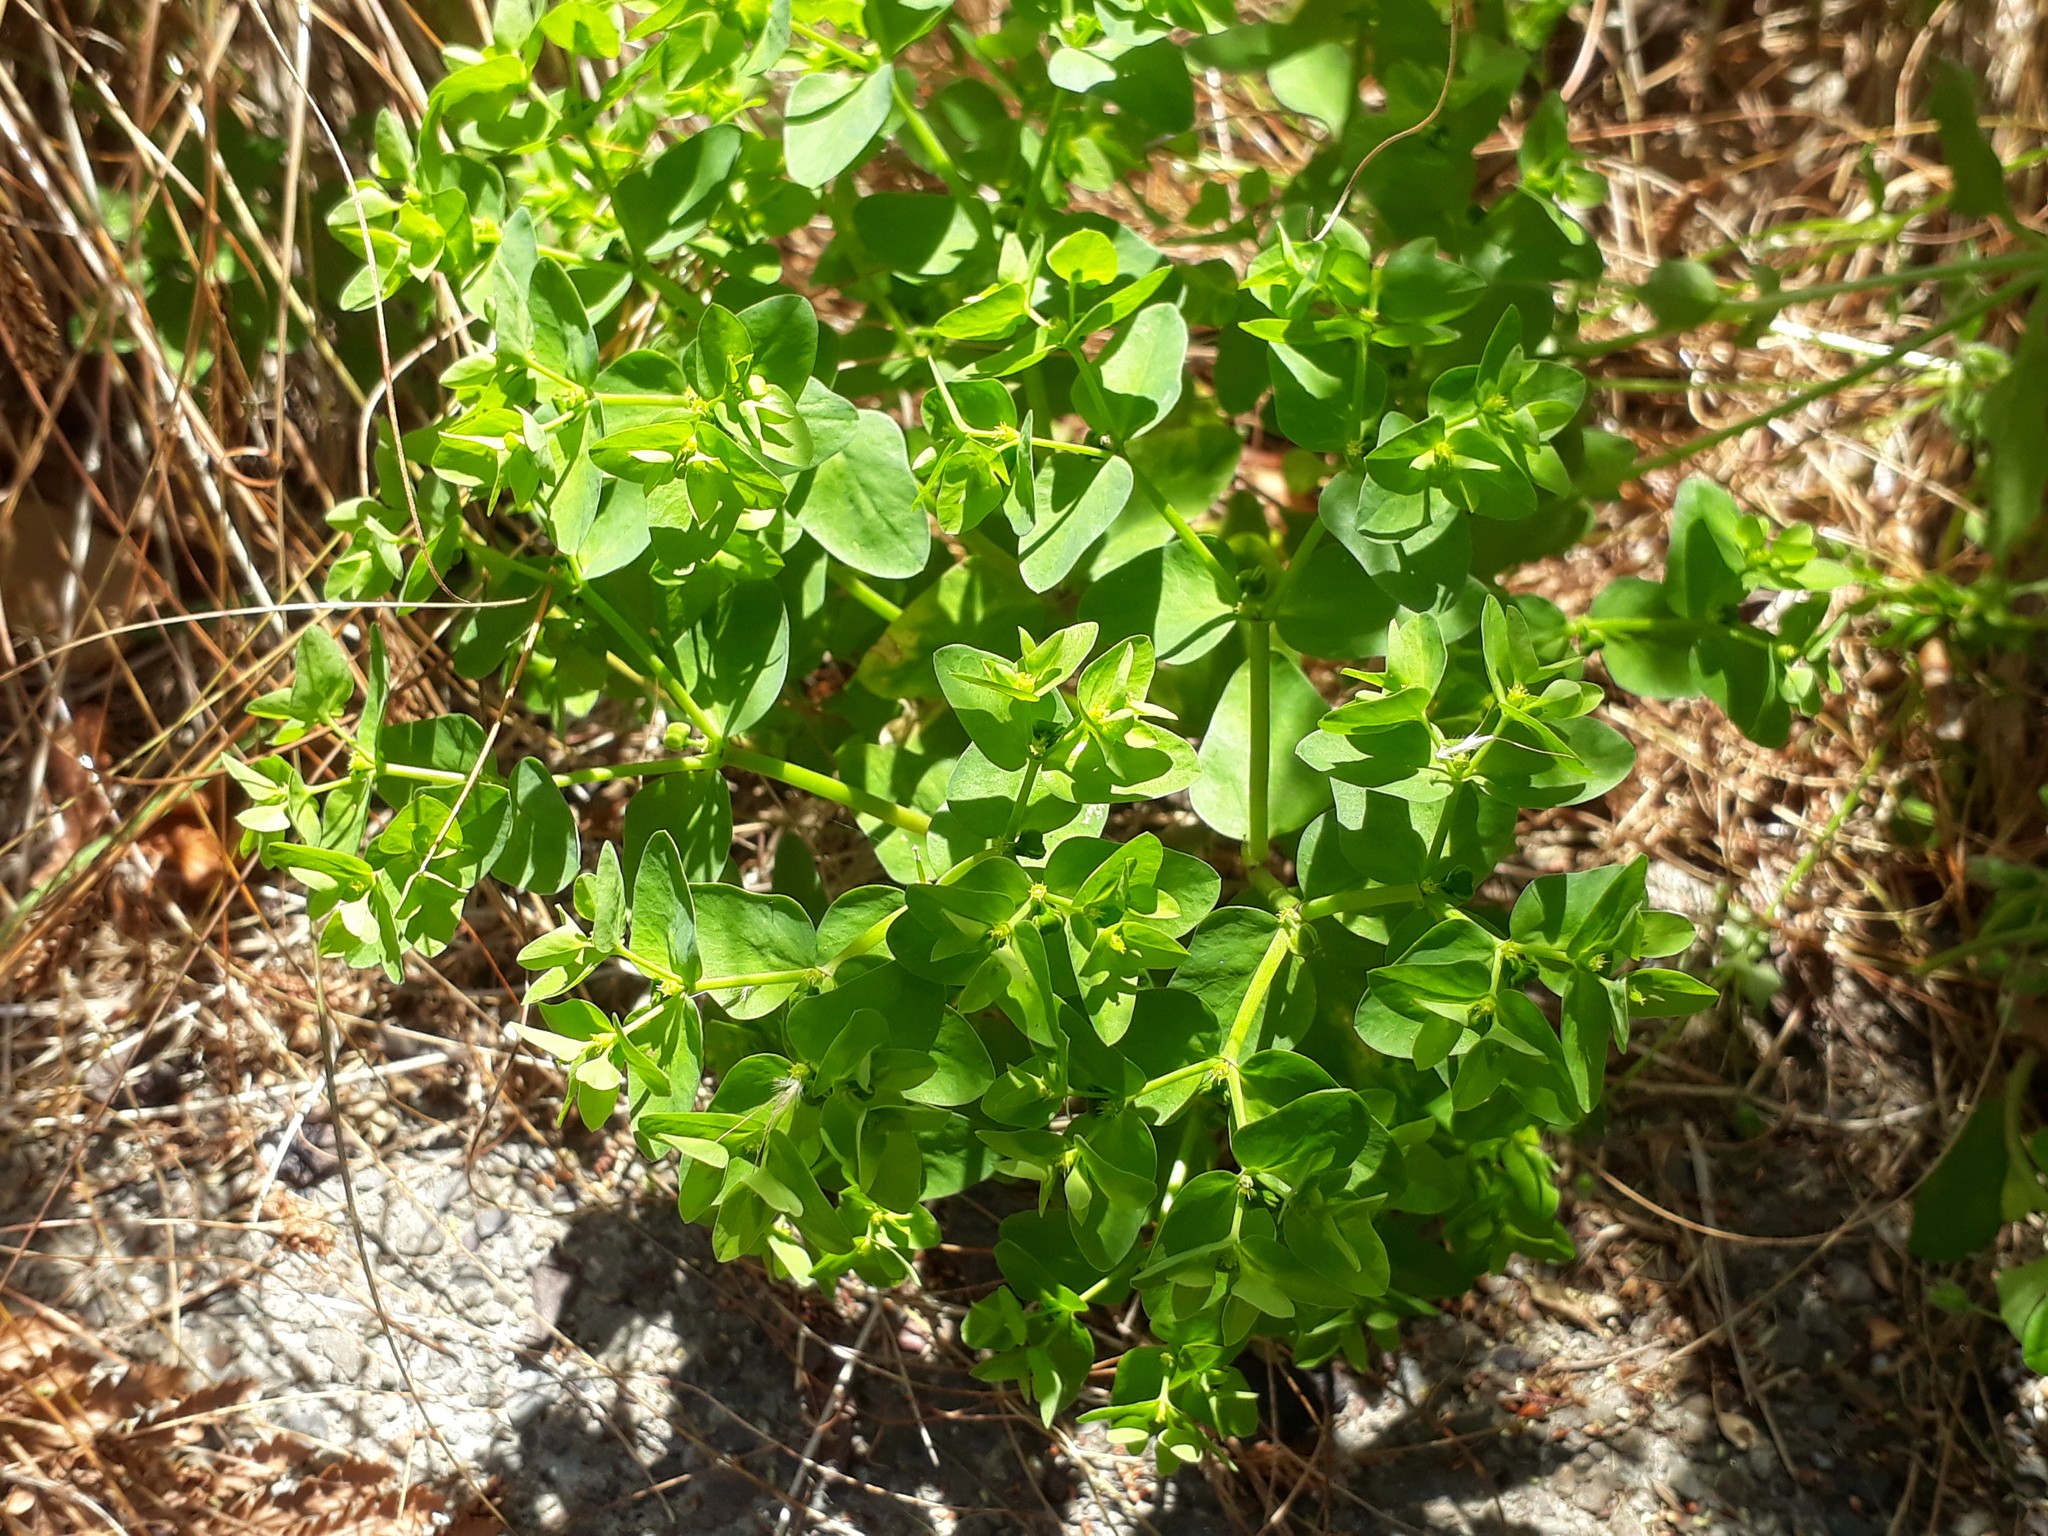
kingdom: Plantae
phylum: Tracheophyta
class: Magnoliopsida
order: Malpighiales
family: Euphorbiaceae
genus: Euphorbia
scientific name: Euphorbia peplus
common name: Petty spurge
